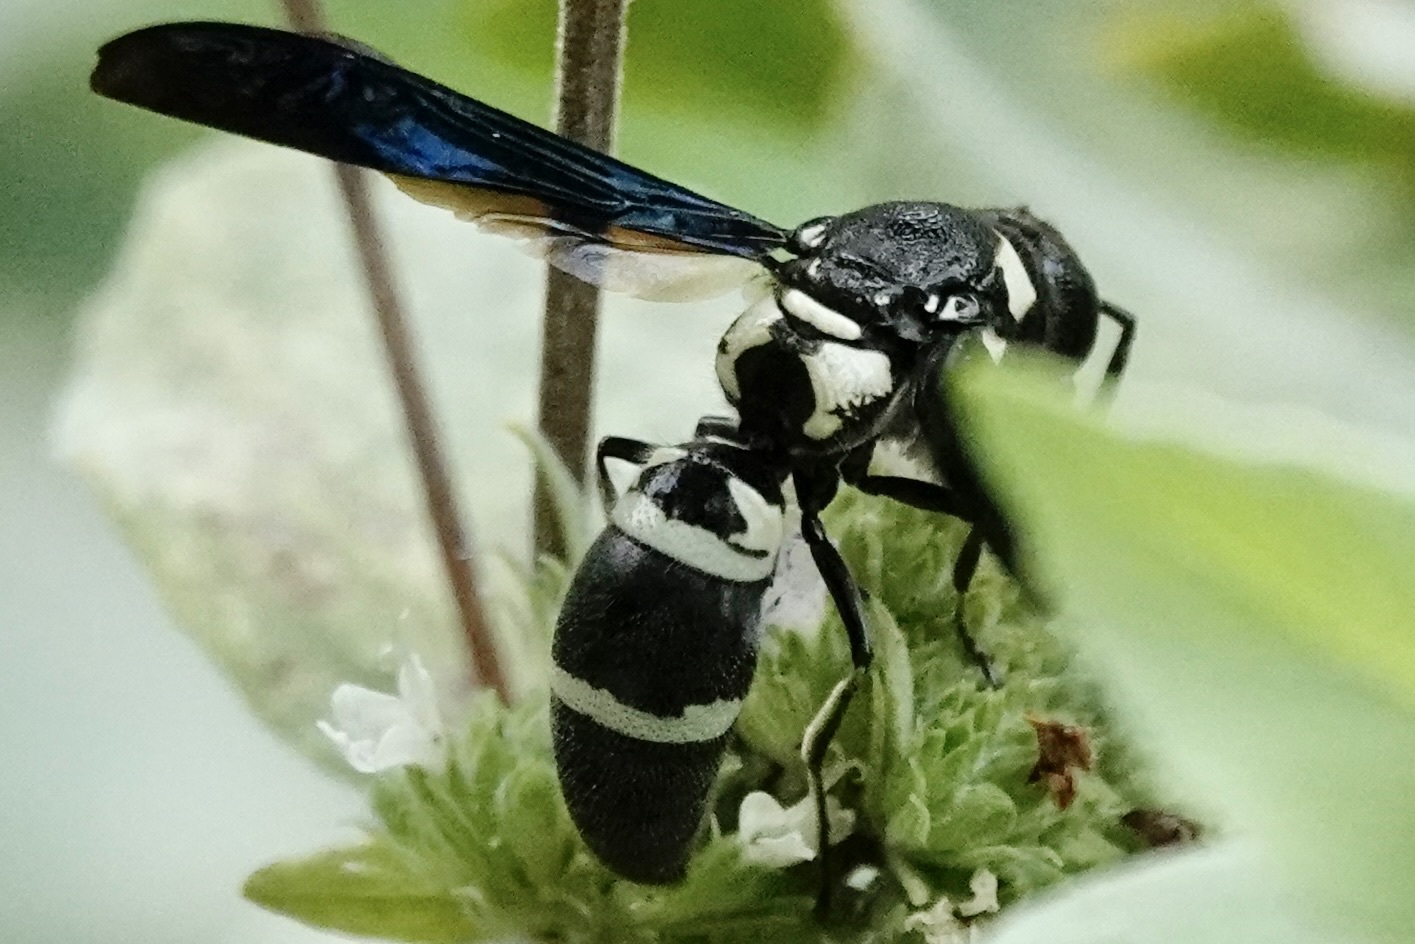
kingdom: Animalia
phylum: Arthropoda
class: Insecta
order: Hymenoptera
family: Eumenidae
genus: Pseudodynerus
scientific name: Pseudodynerus quadrisectus
